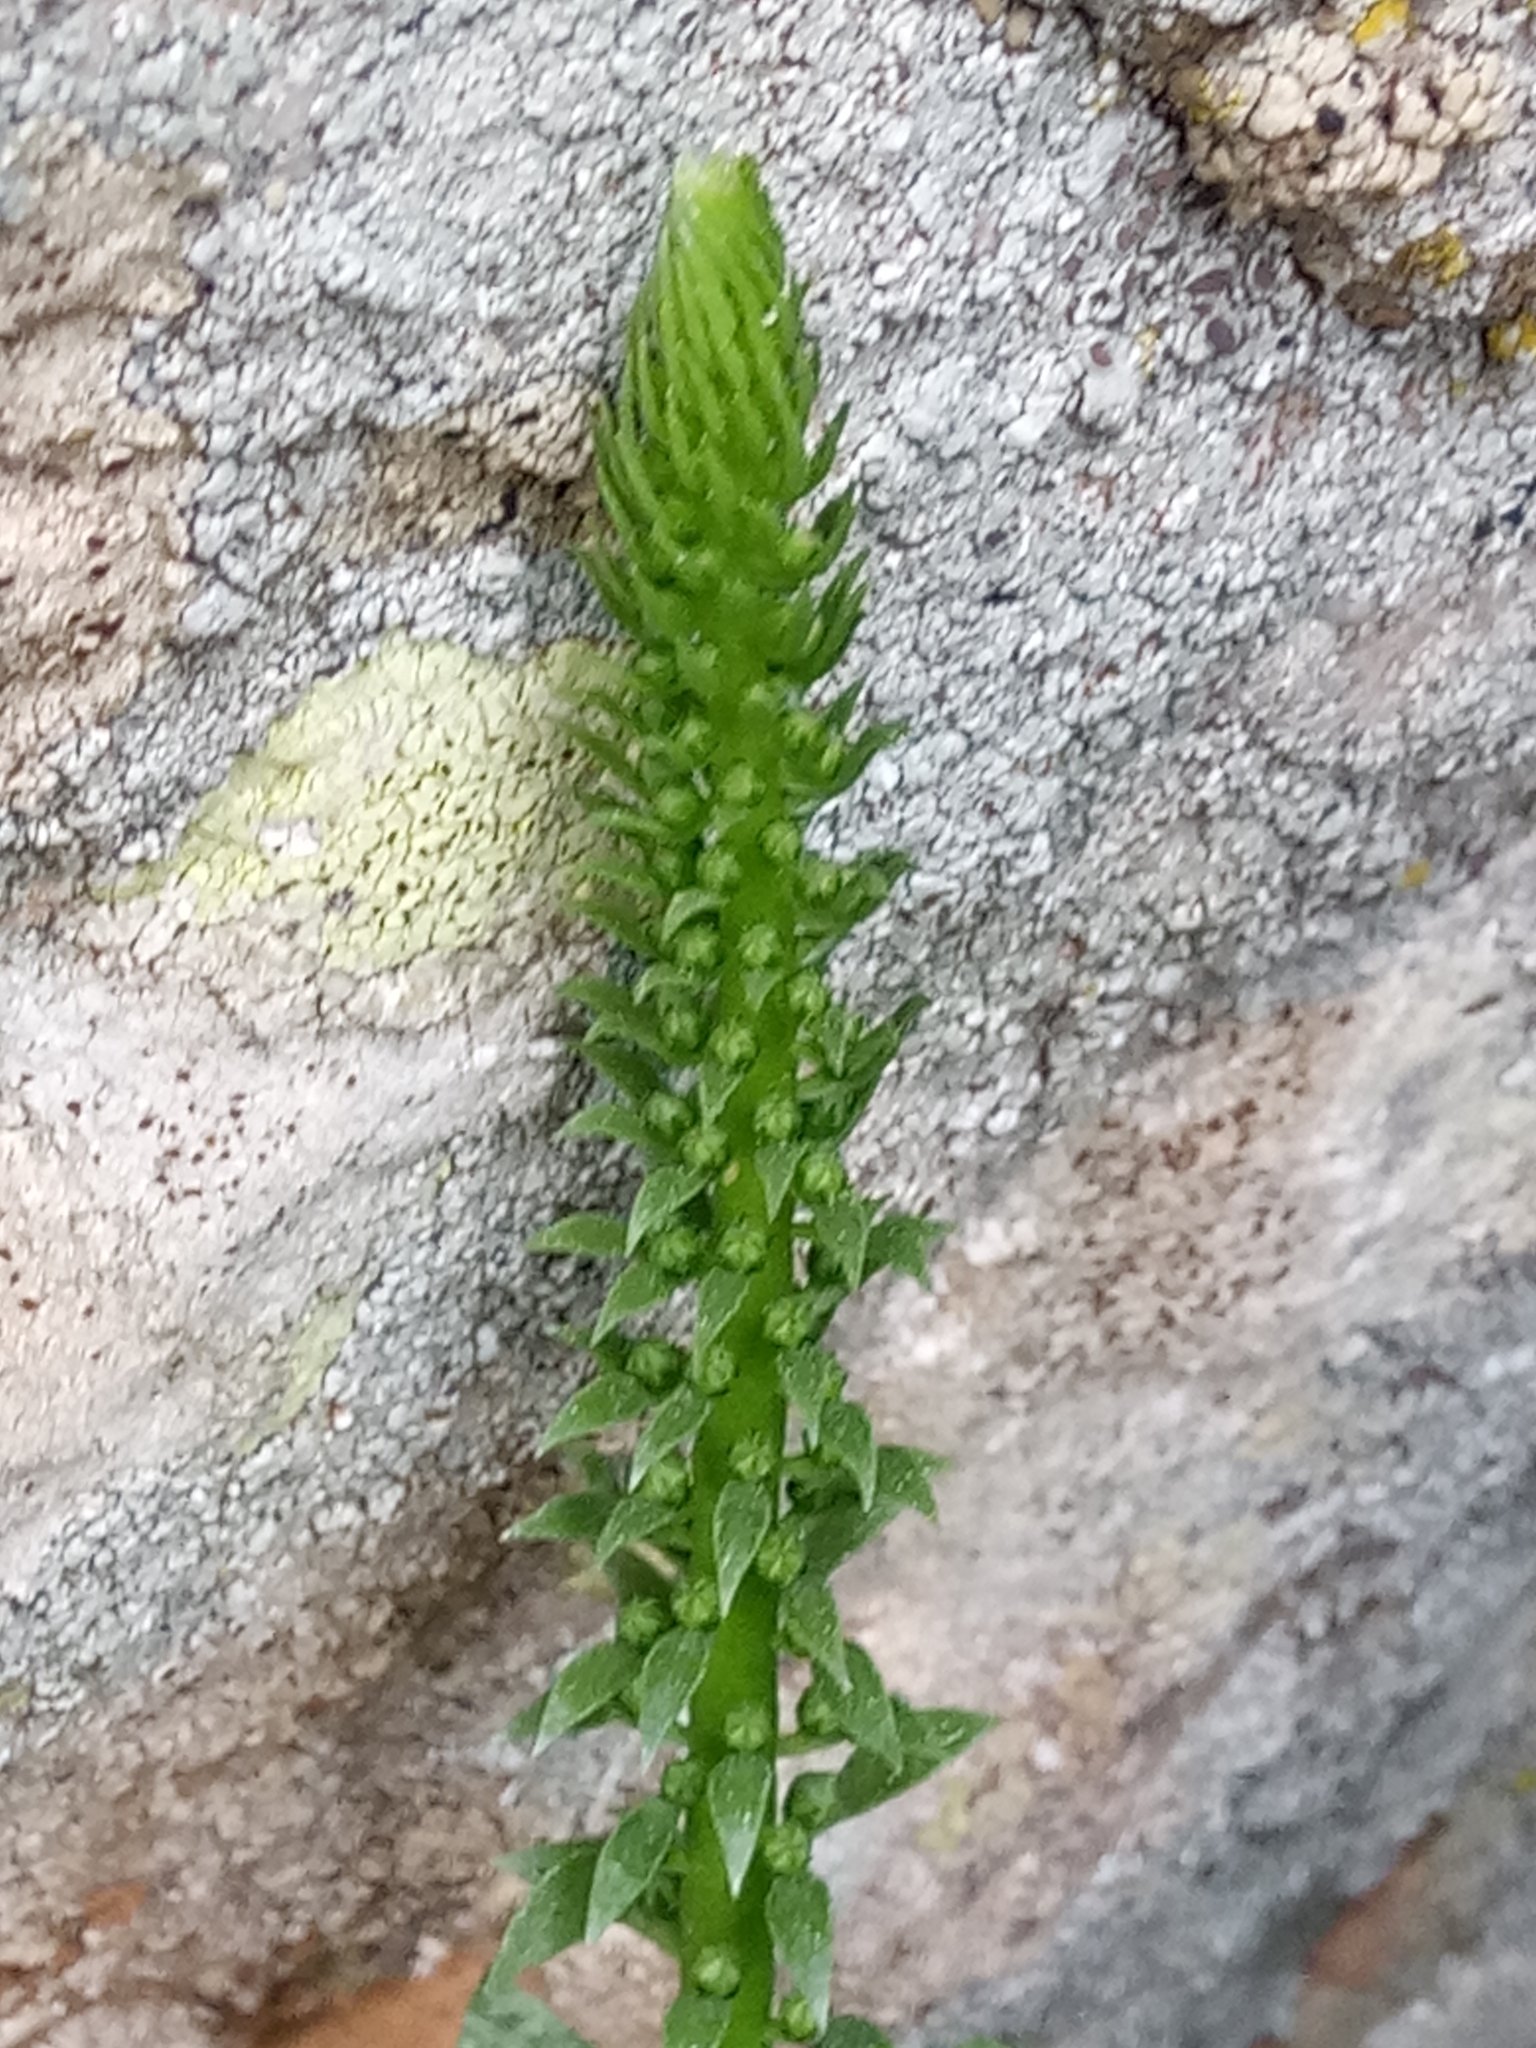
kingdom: Plantae
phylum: Tracheophyta
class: Magnoliopsida
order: Saxifragales
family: Crassulaceae
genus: Umbilicus
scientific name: Umbilicus rupestris
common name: Navelwort
